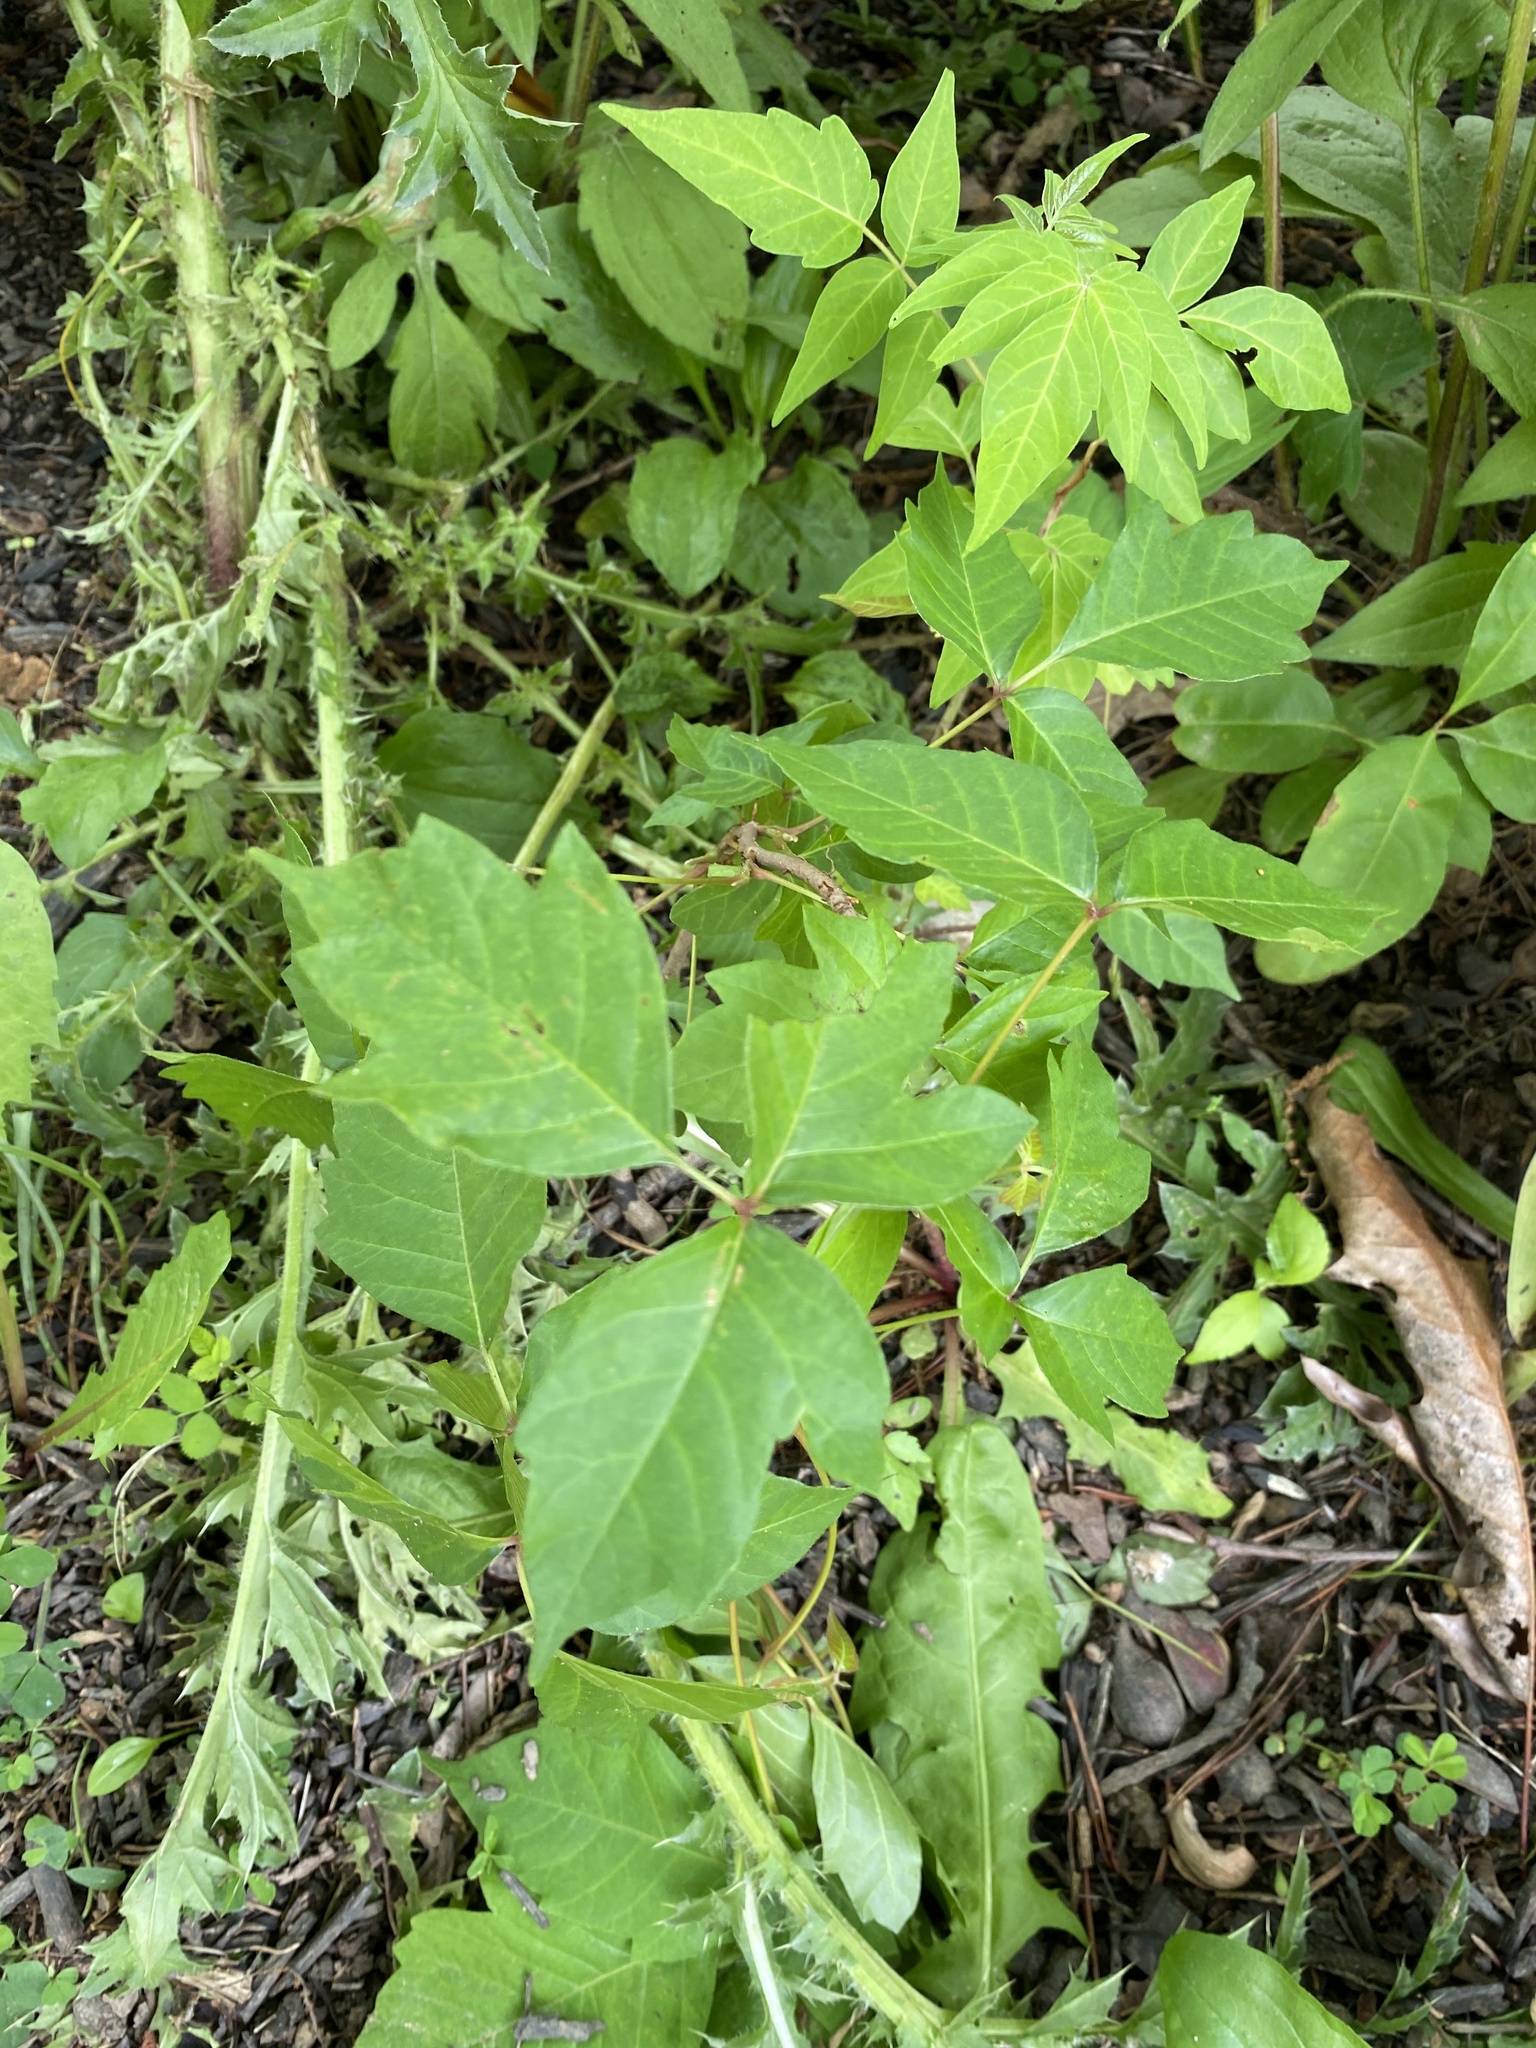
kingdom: Plantae
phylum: Tracheophyta
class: Magnoliopsida
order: Sapindales
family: Anacardiaceae
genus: Toxicodendron
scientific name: Toxicodendron radicans
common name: Poison ivy
